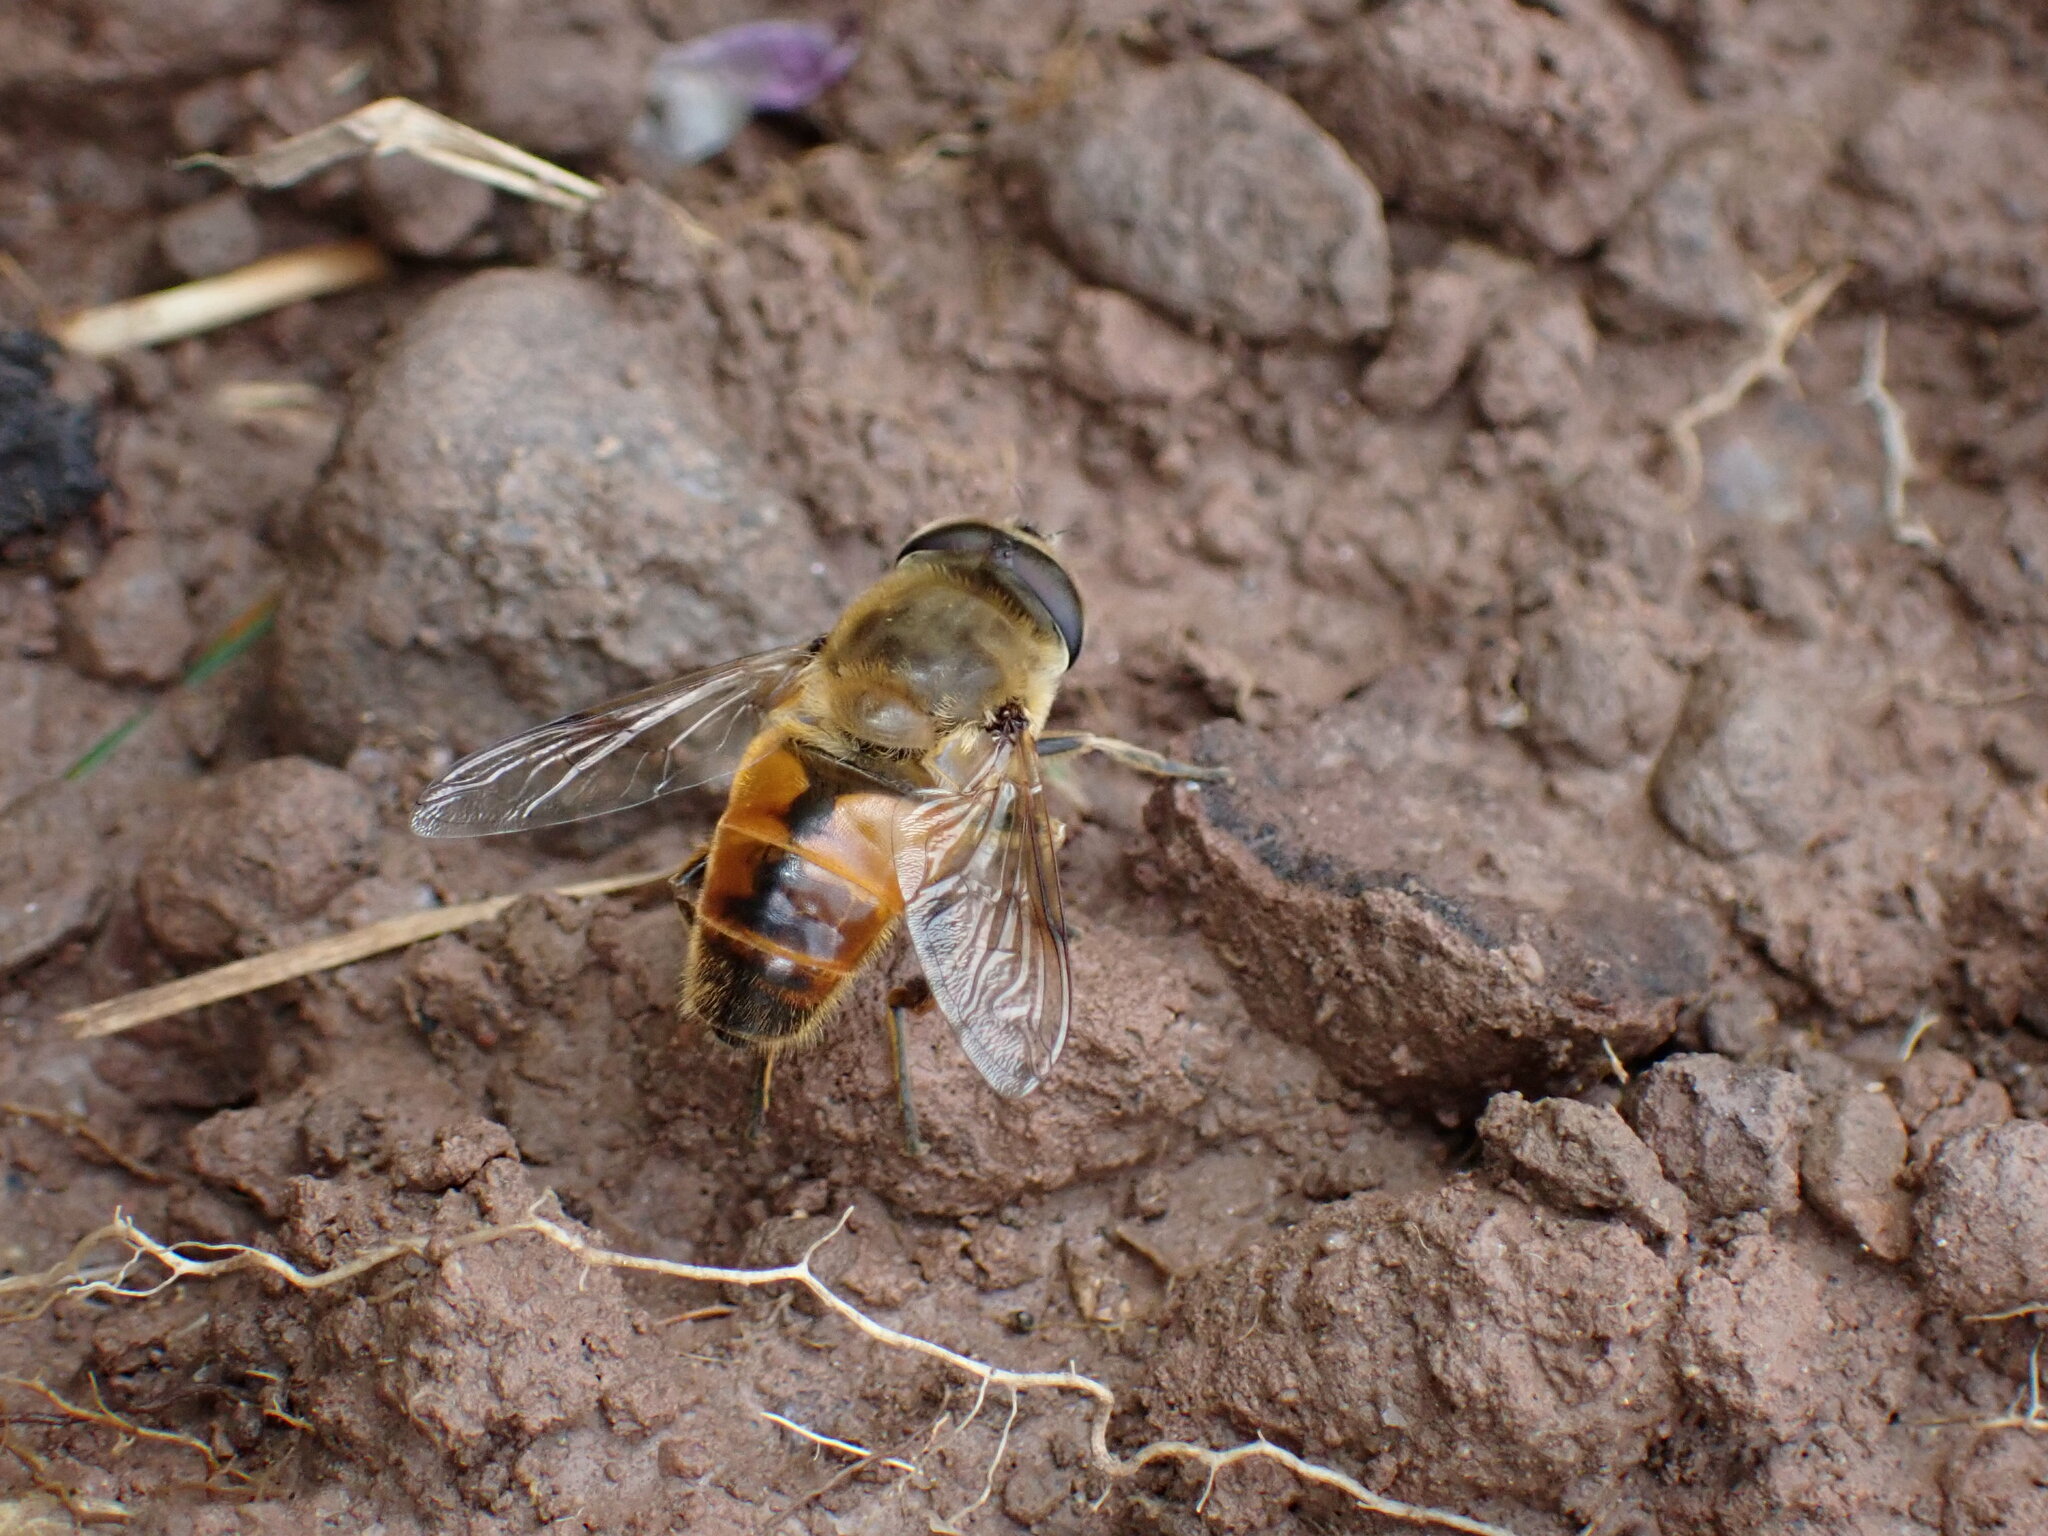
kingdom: Animalia
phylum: Arthropoda
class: Insecta
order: Diptera
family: Syrphidae
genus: Eristalis
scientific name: Eristalis tenax
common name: Drone fly
